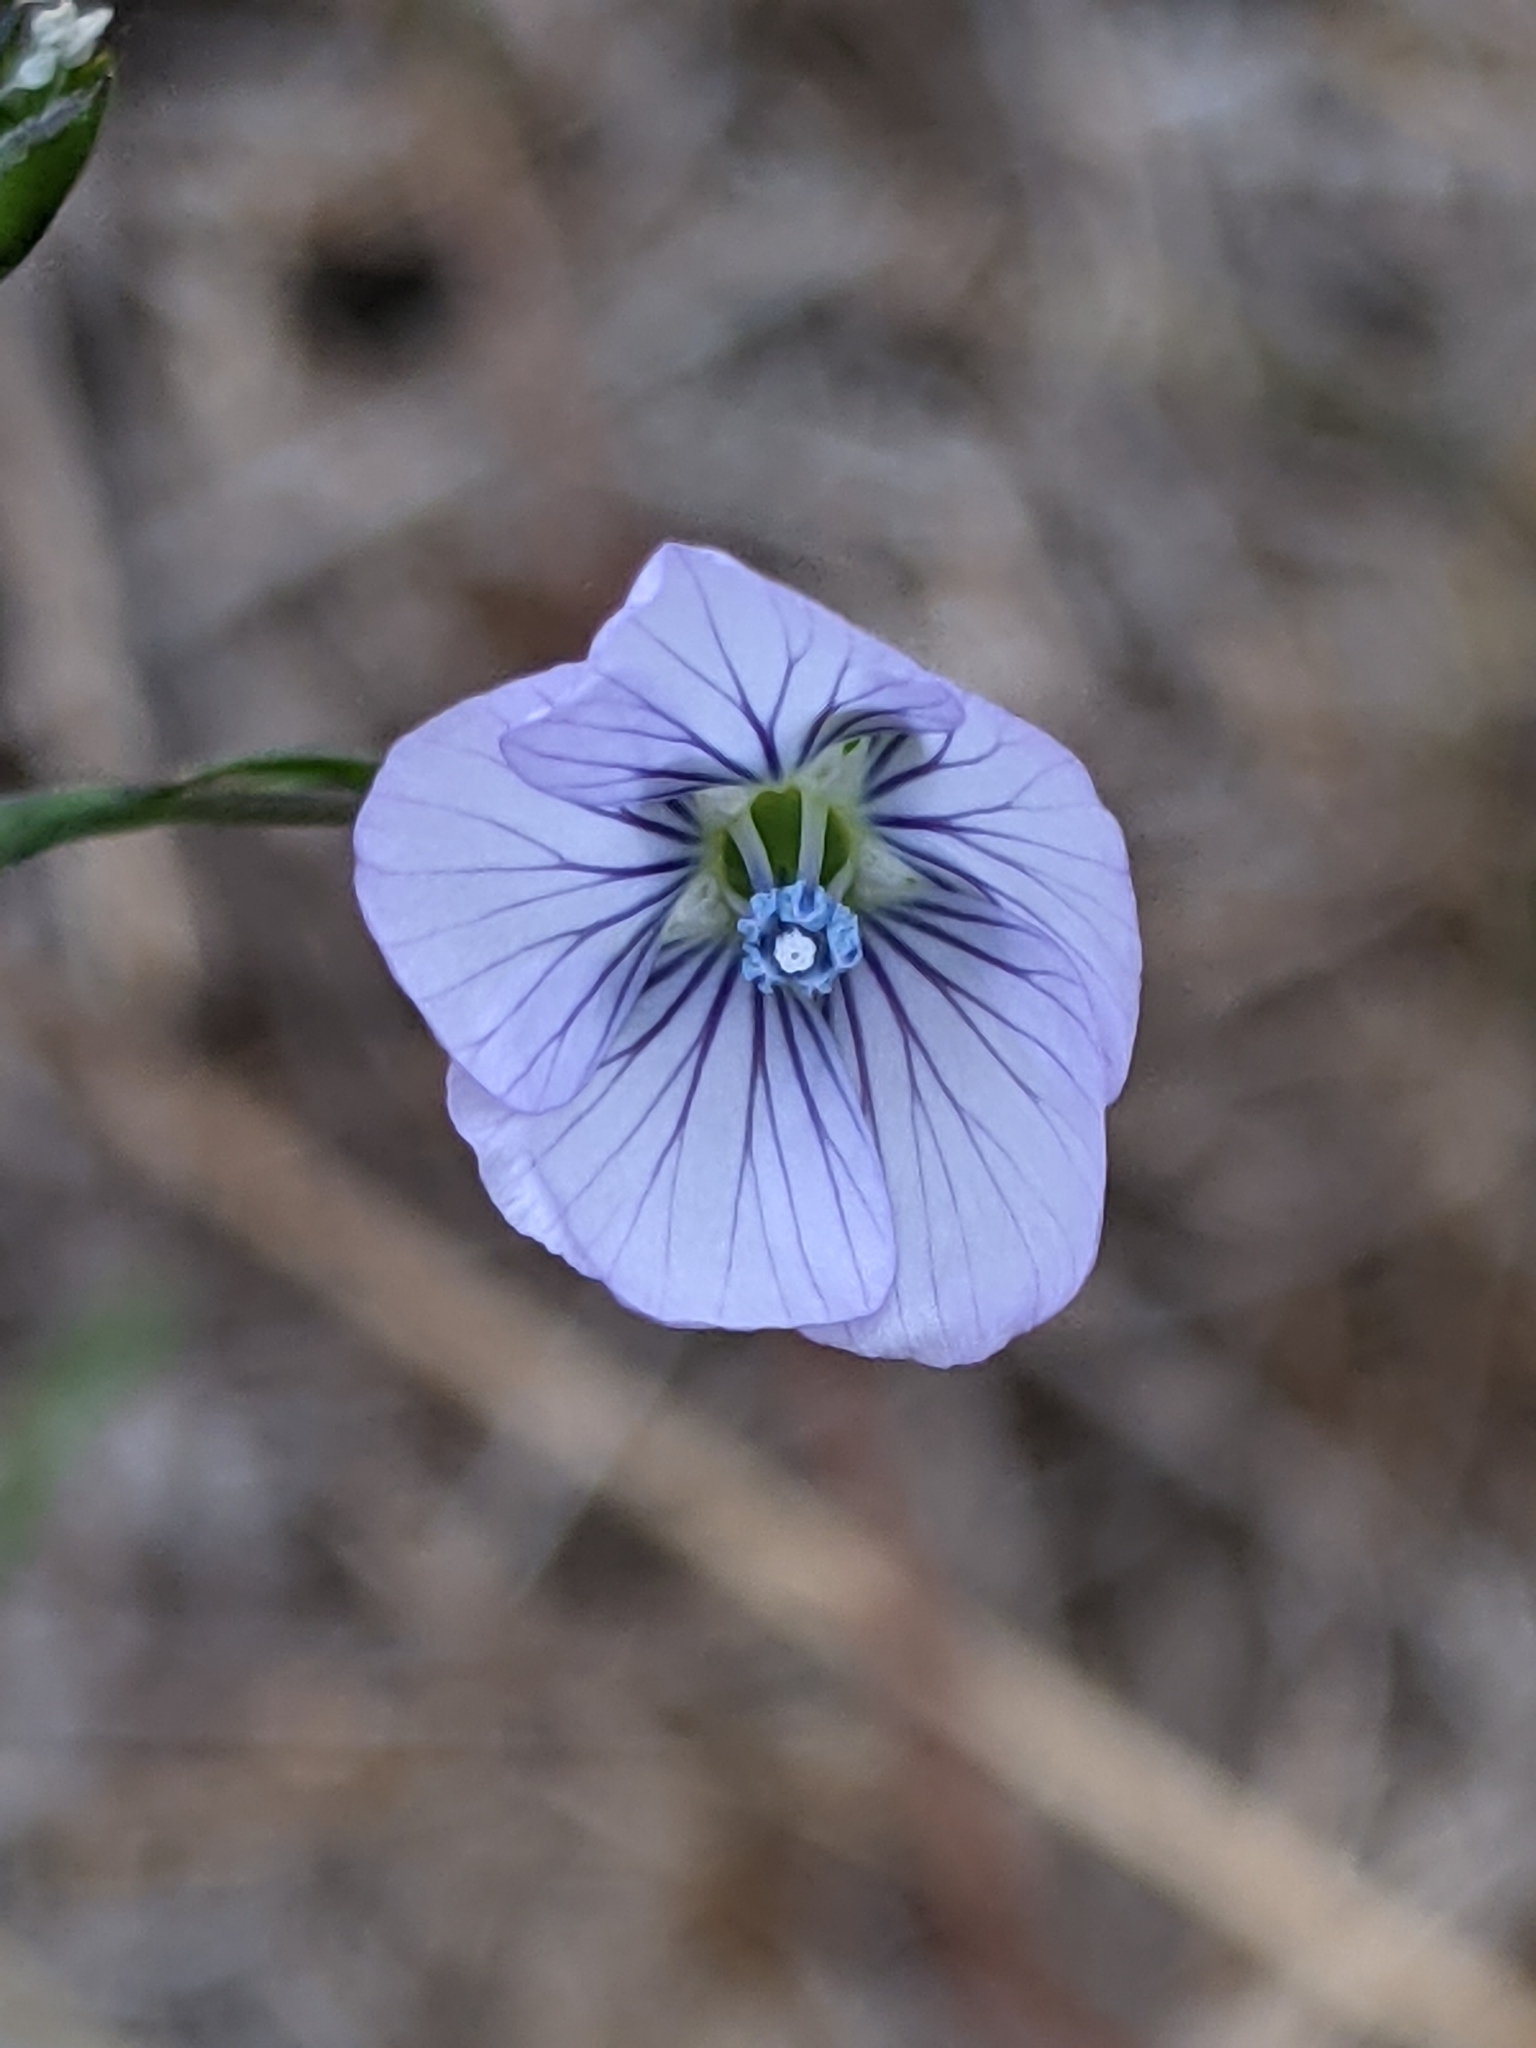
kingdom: Plantae
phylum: Tracheophyta
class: Magnoliopsida
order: Malpighiales
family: Linaceae
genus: Linum
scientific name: Linum bienne
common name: Pale flax
